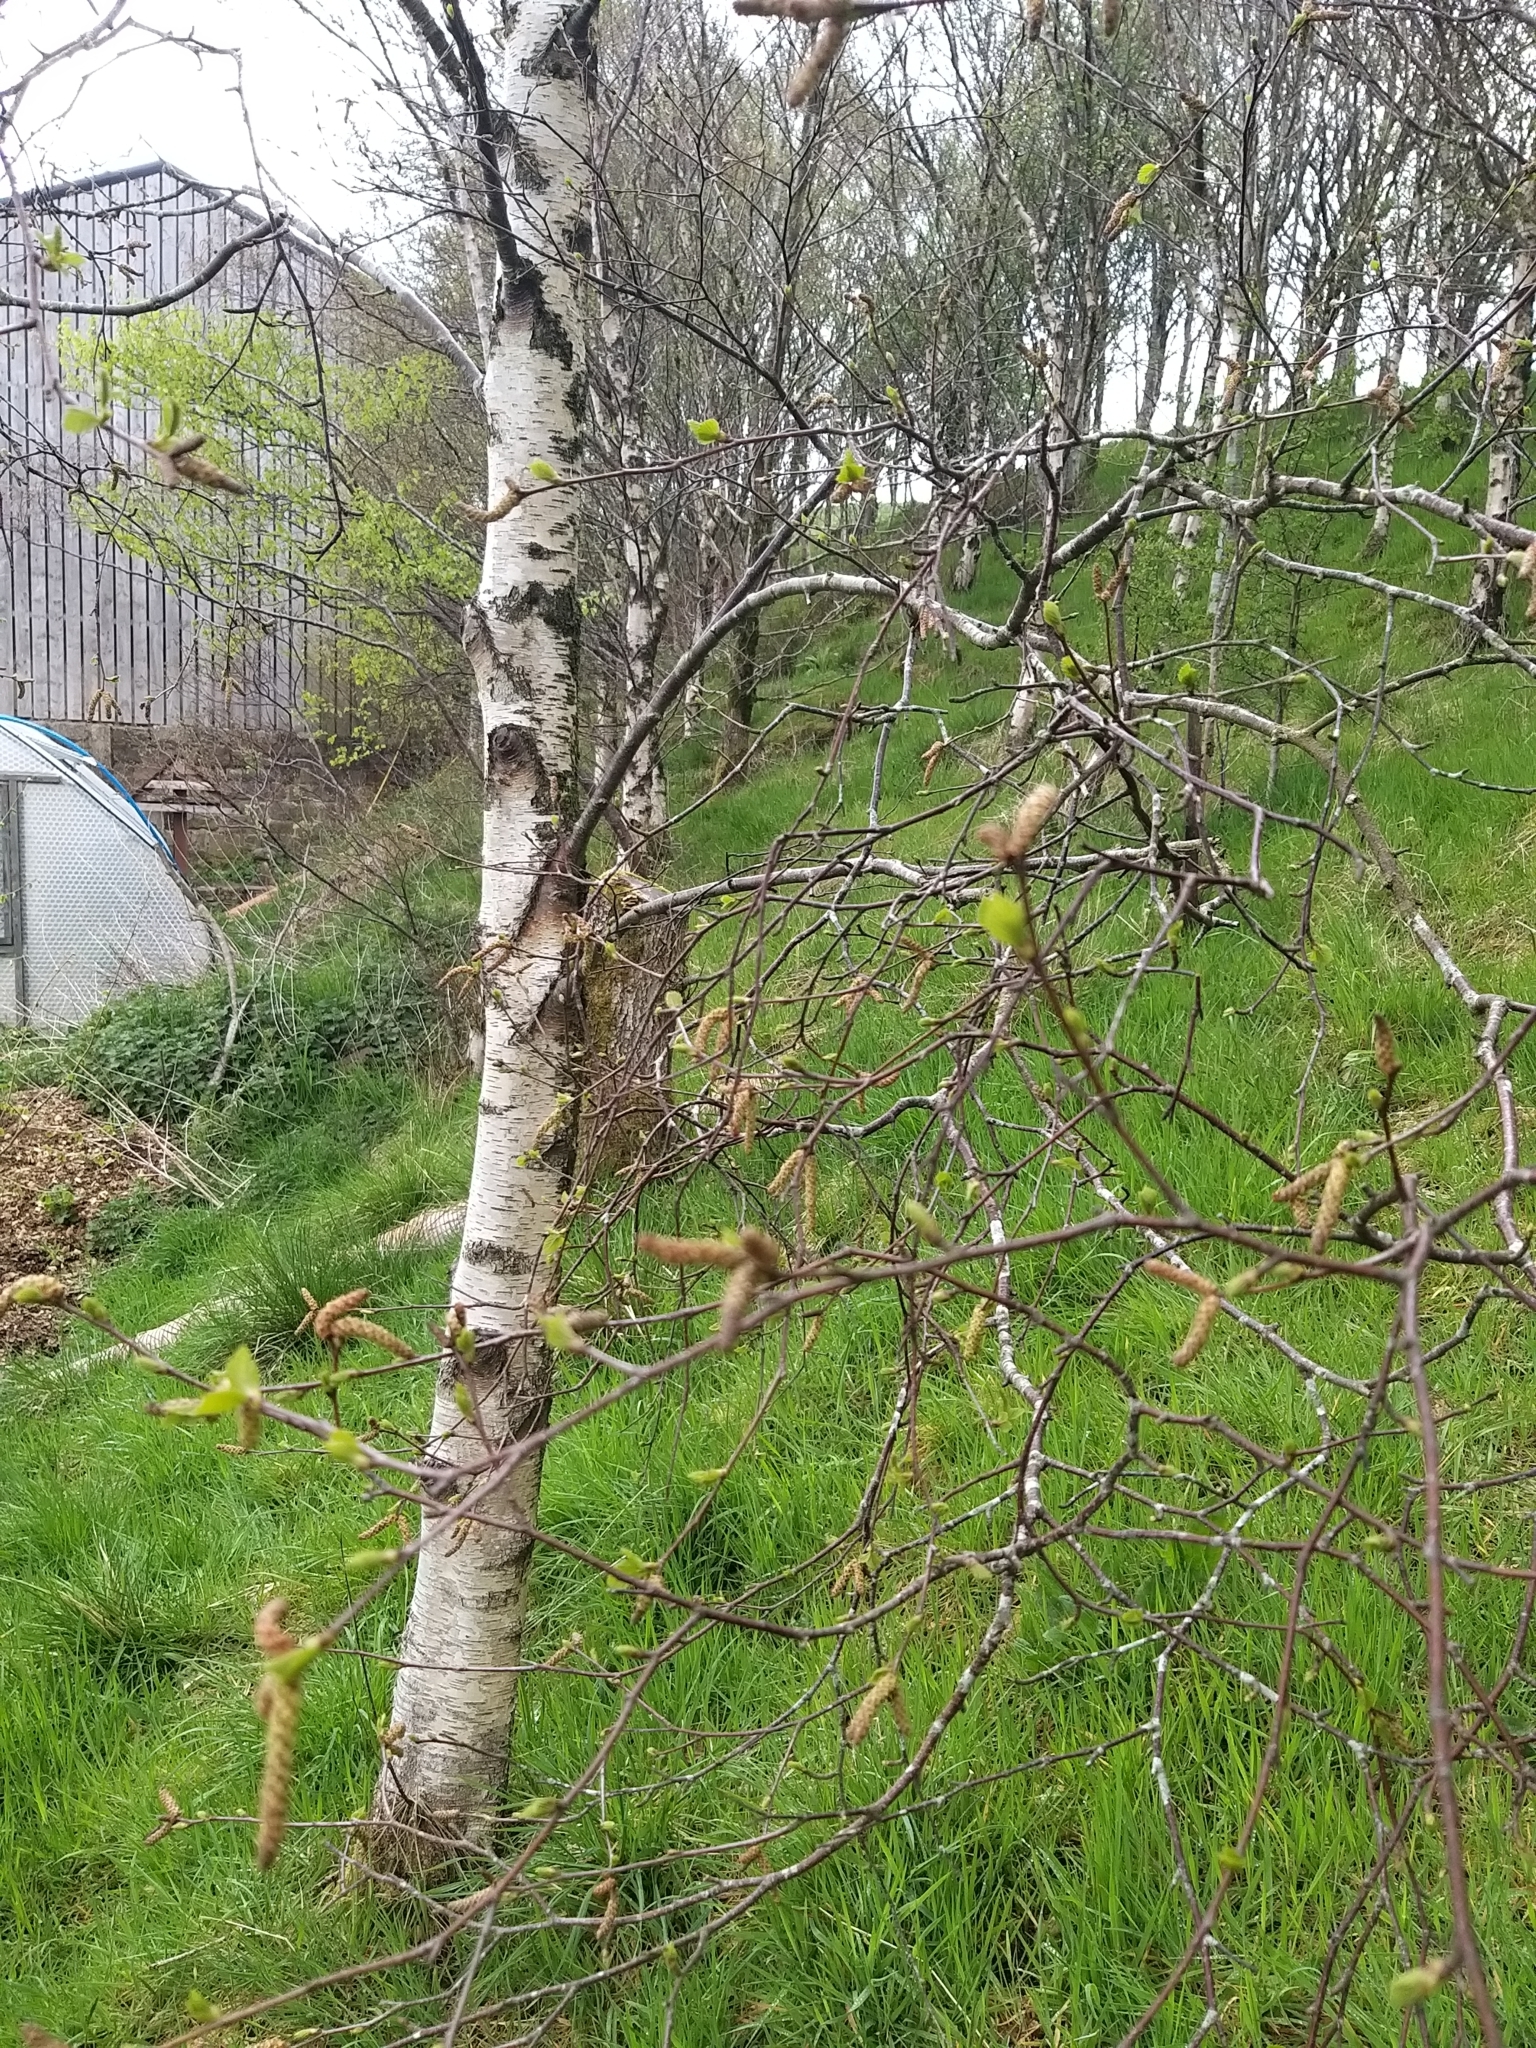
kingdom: Plantae
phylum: Tracheophyta
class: Magnoliopsida
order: Fagales
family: Betulaceae
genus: Betula
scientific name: Betula pendula
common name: Silver birch
